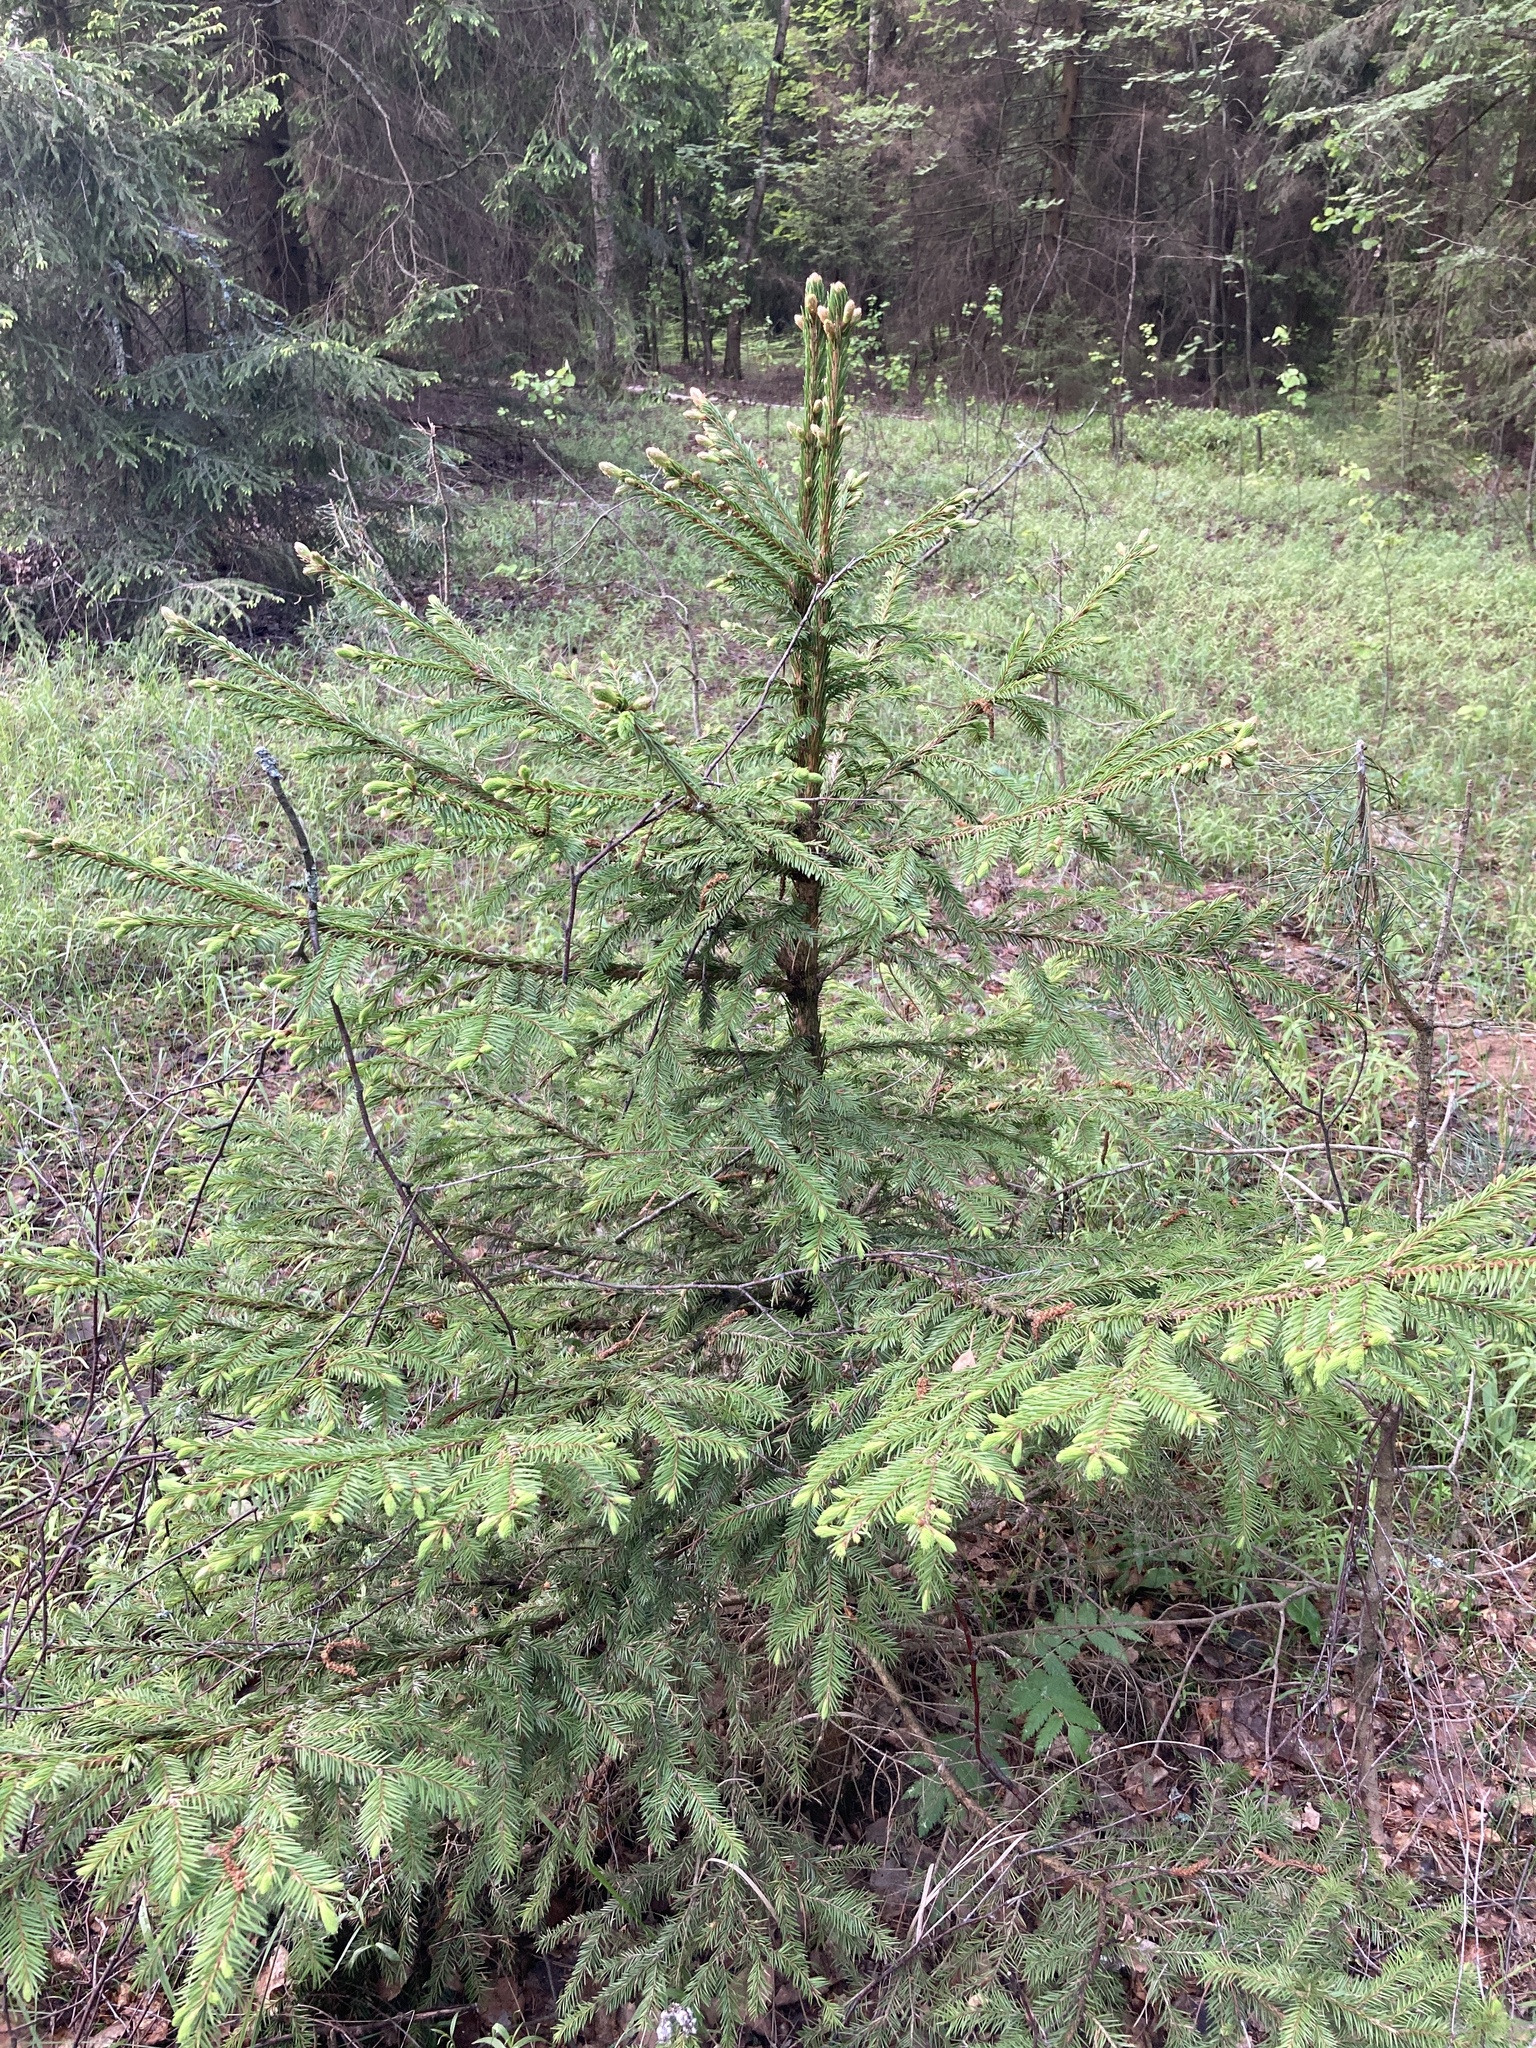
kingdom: Plantae
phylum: Tracheophyta
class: Pinopsida
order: Pinales
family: Pinaceae
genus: Picea
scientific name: Picea abies
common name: Norway spruce
